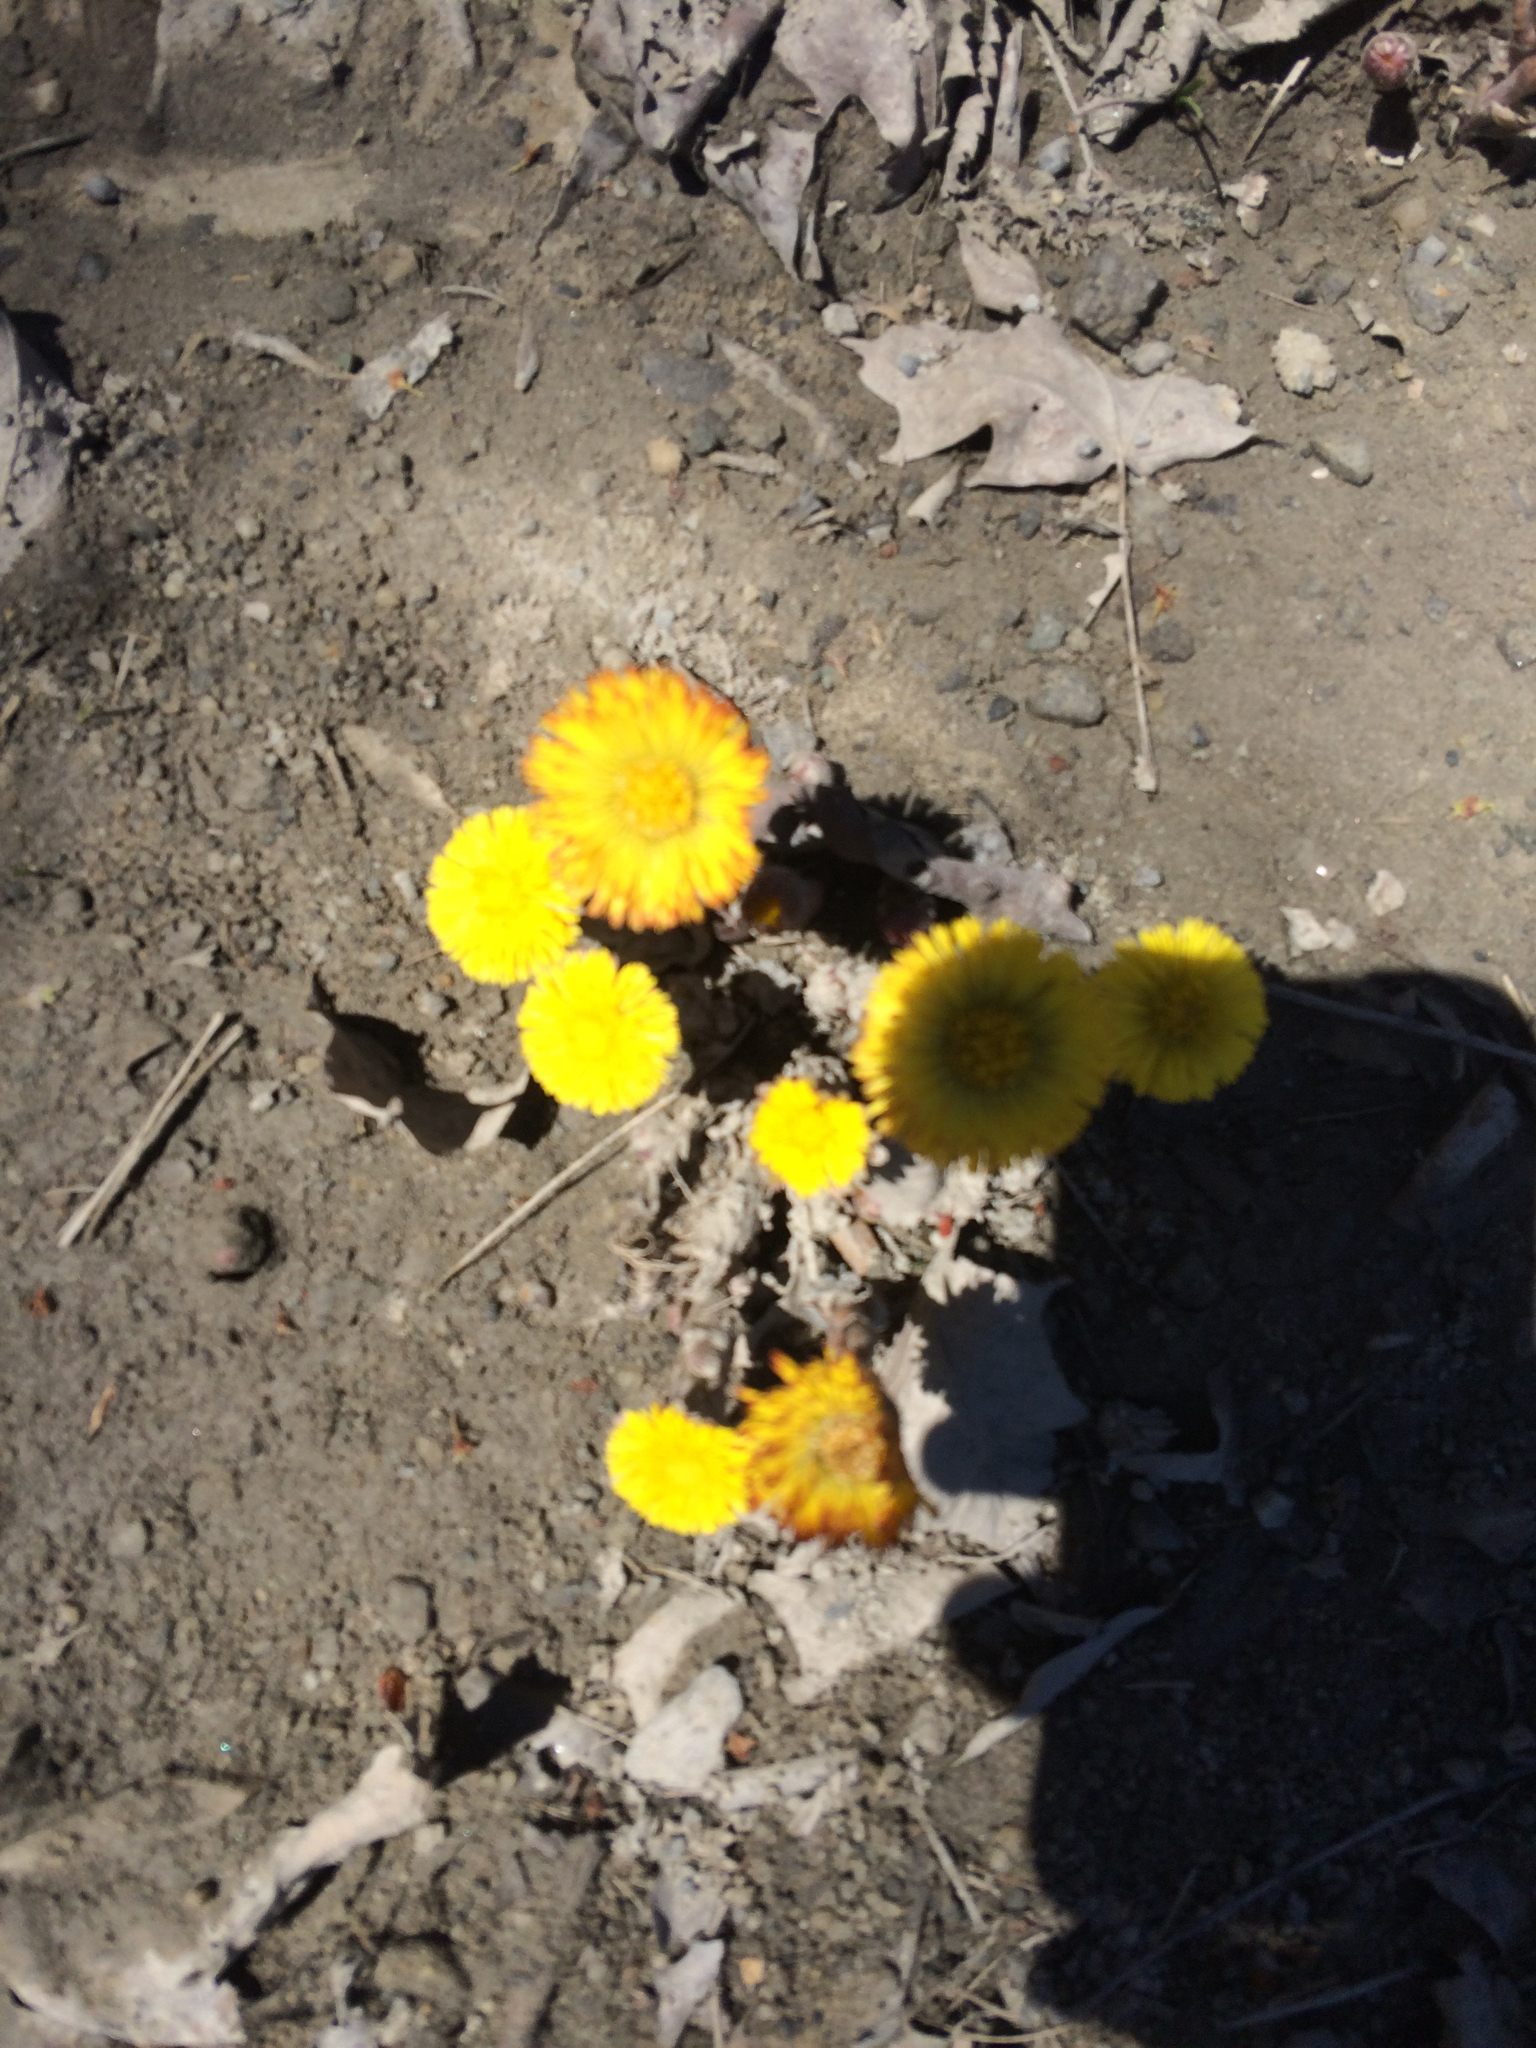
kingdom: Plantae
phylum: Tracheophyta
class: Magnoliopsida
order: Asterales
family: Asteraceae
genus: Tussilago
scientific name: Tussilago farfara
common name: Coltsfoot
